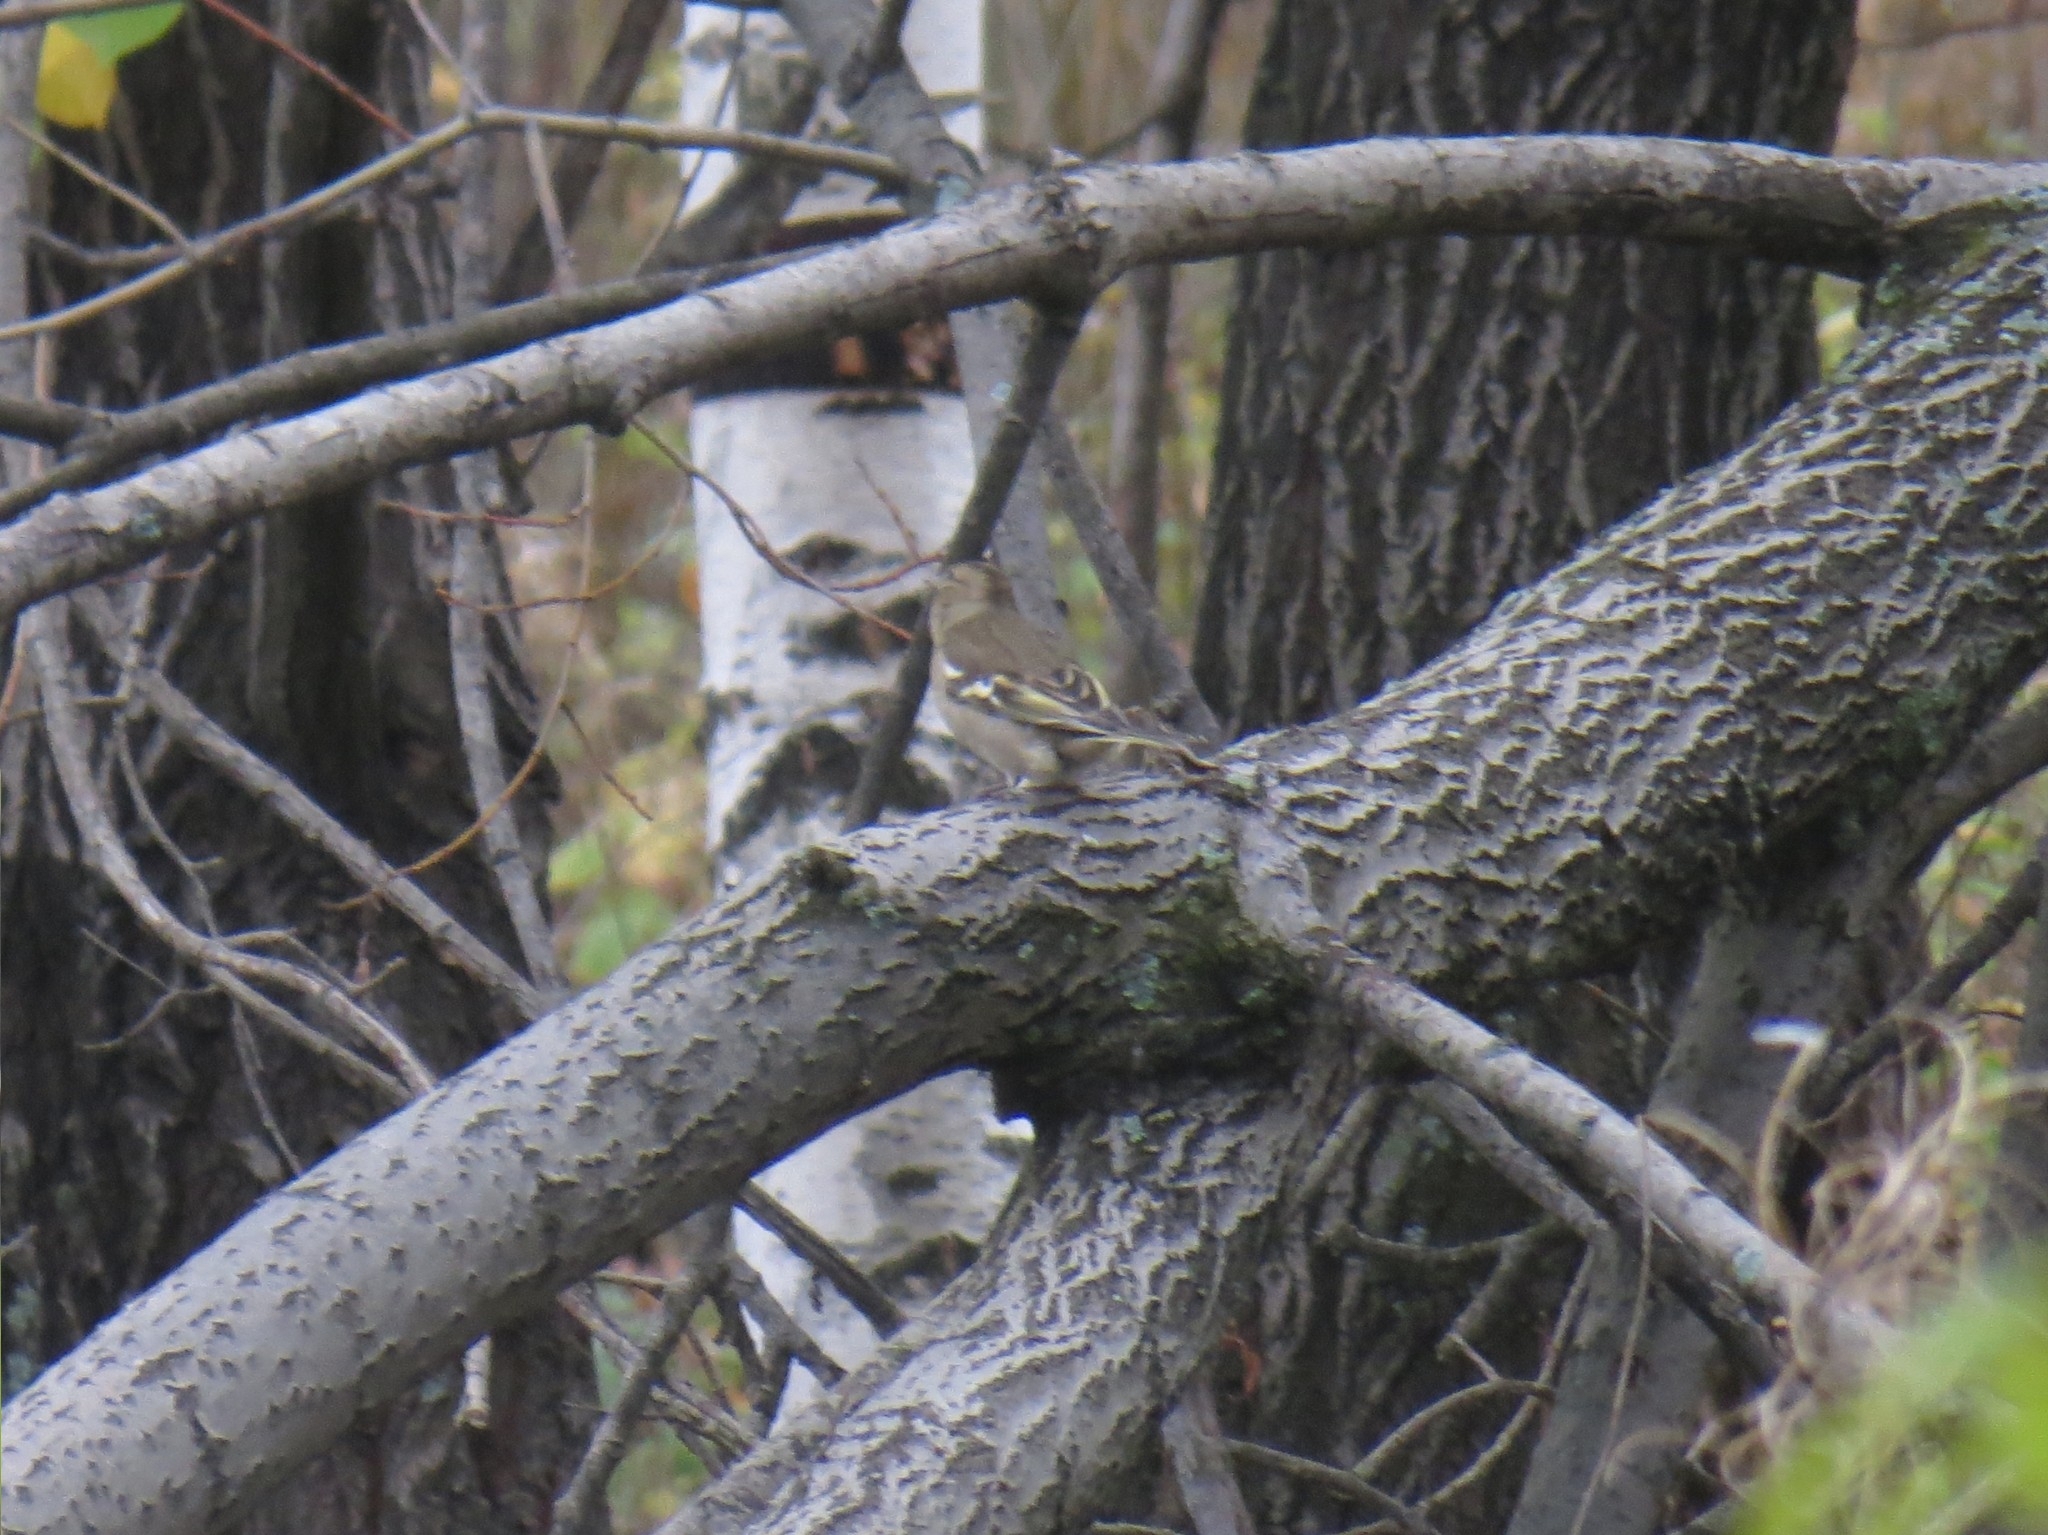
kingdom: Animalia
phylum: Chordata
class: Aves
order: Passeriformes
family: Fringillidae
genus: Fringilla
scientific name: Fringilla coelebs
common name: Common chaffinch
